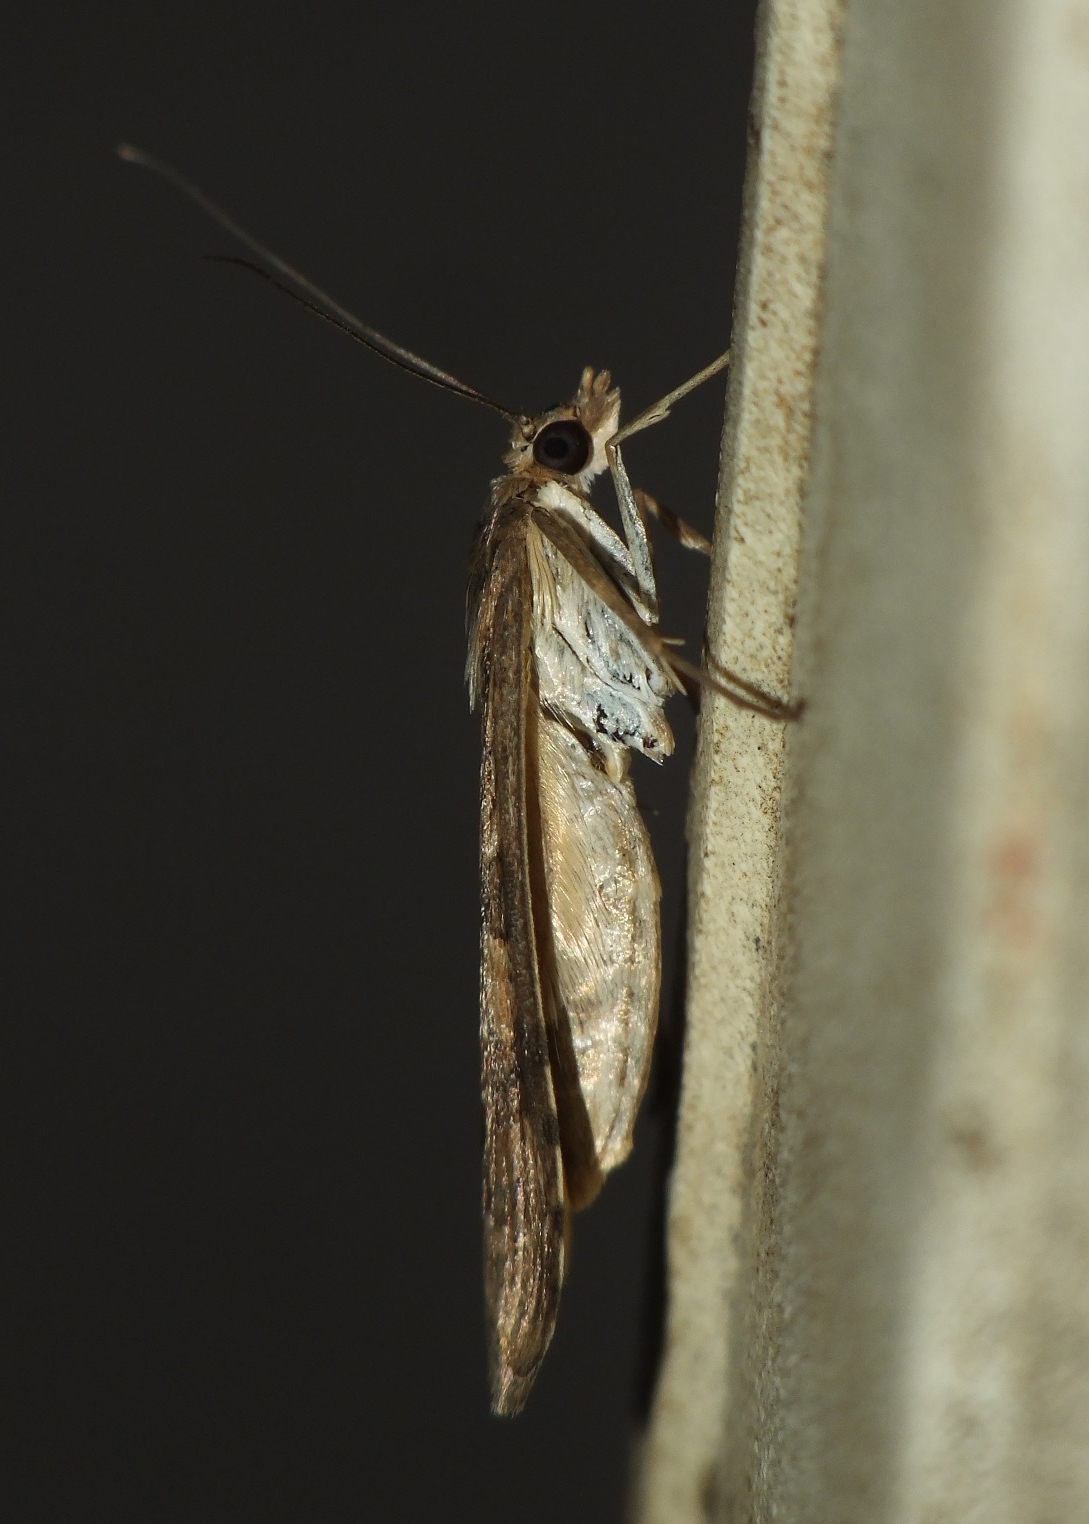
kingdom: Animalia
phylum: Arthropoda
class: Insecta
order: Lepidoptera
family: Crambidae
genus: Nomophila
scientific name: Nomophila noctuella
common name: Rush veneer
